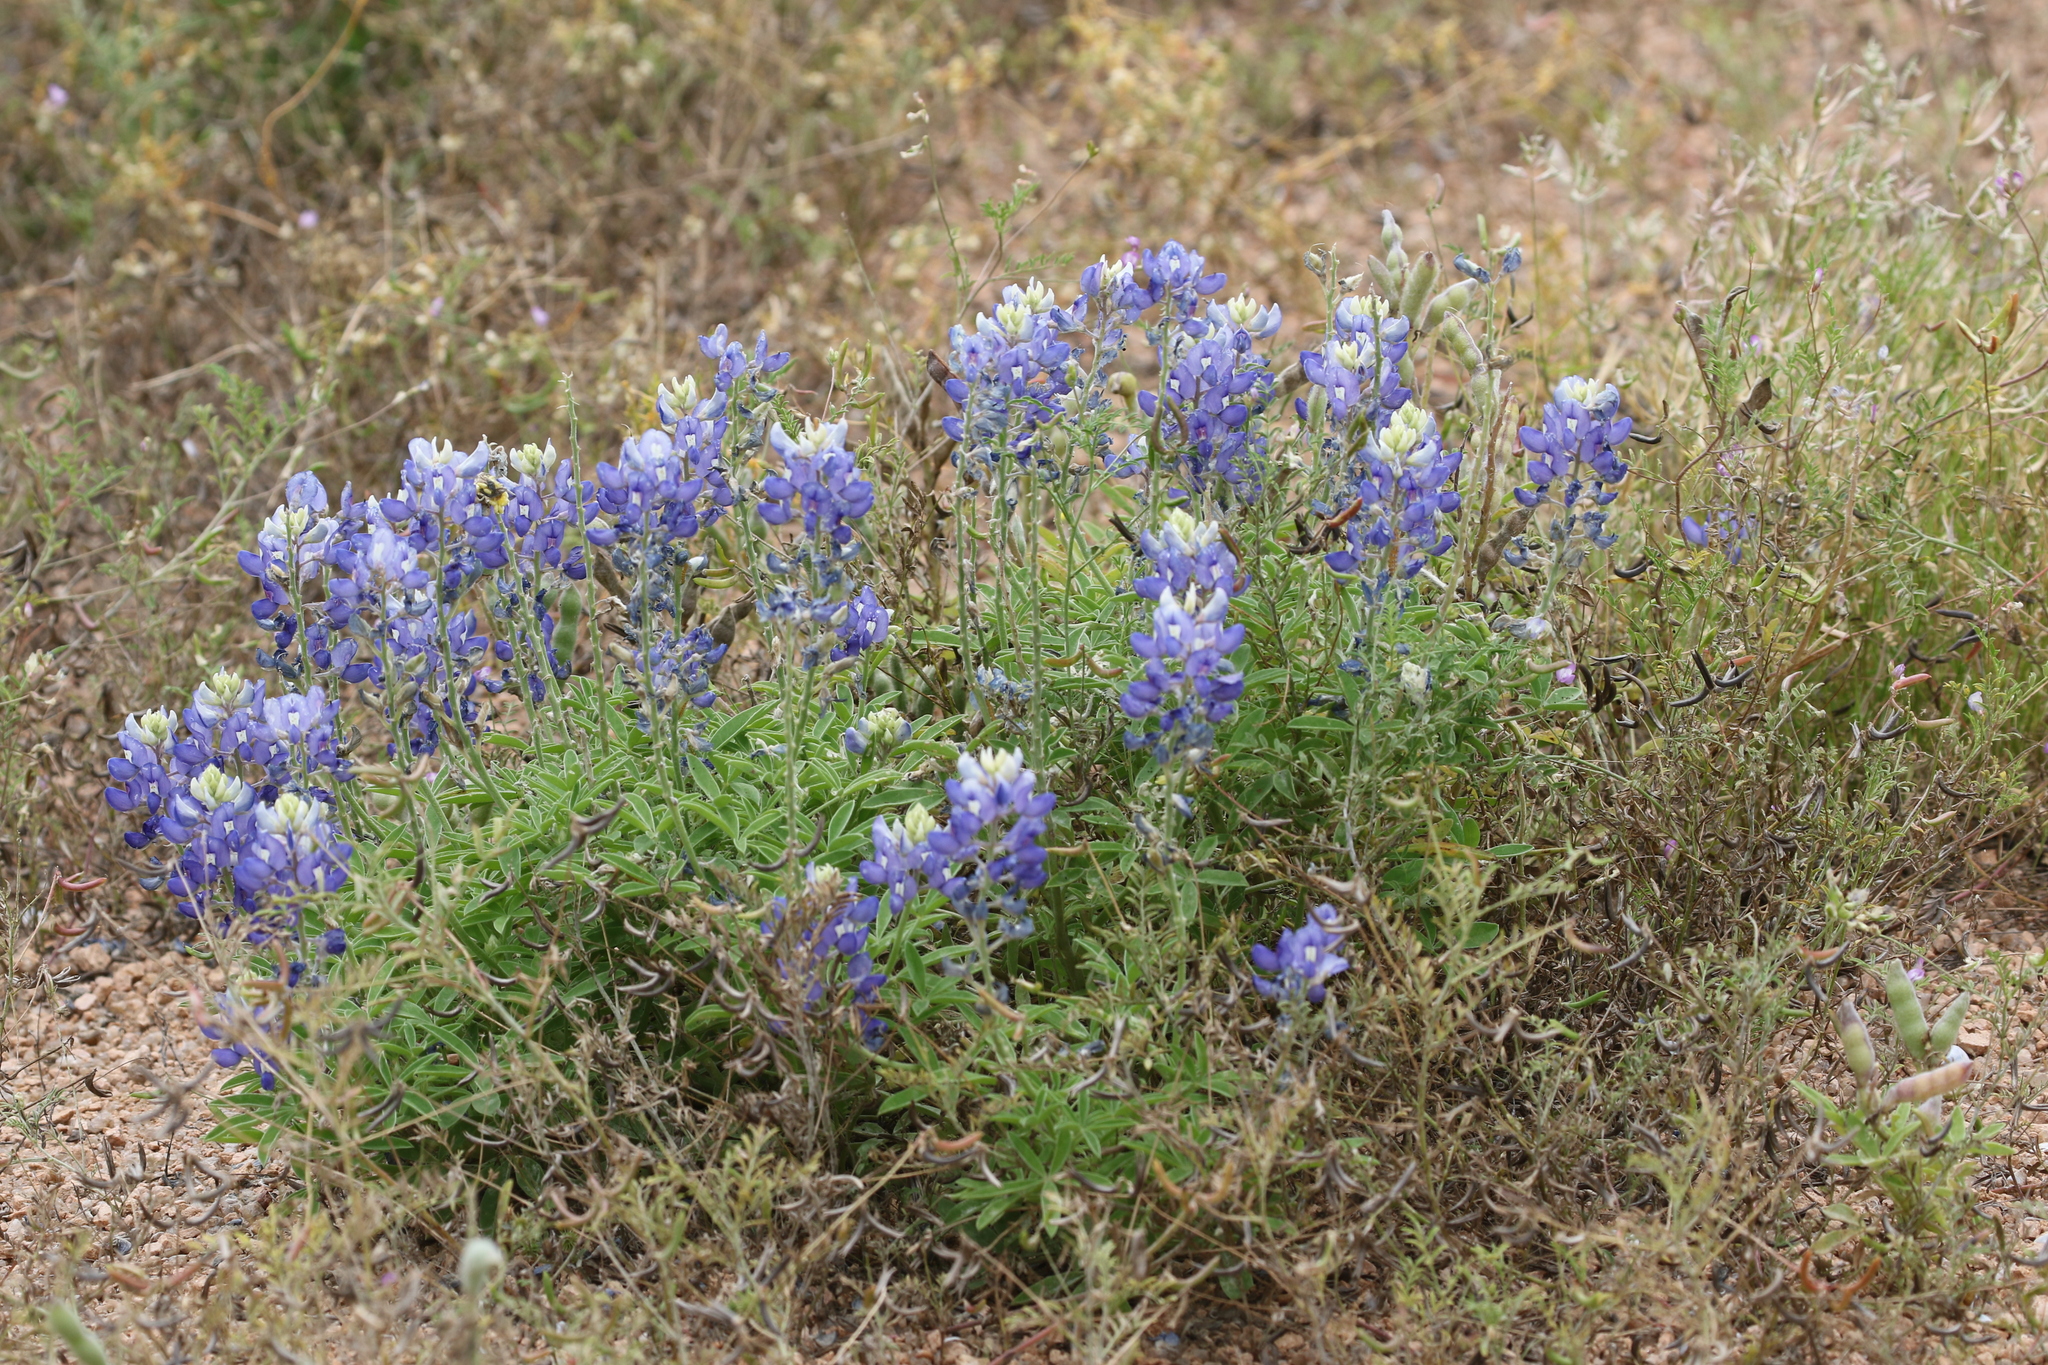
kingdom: Plantae
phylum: Tracheophyta
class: Magnoliopsida
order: Fabales
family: Fabaceae
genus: Lupinus
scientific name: Lupinus texensis
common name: Texas bluebonnet
